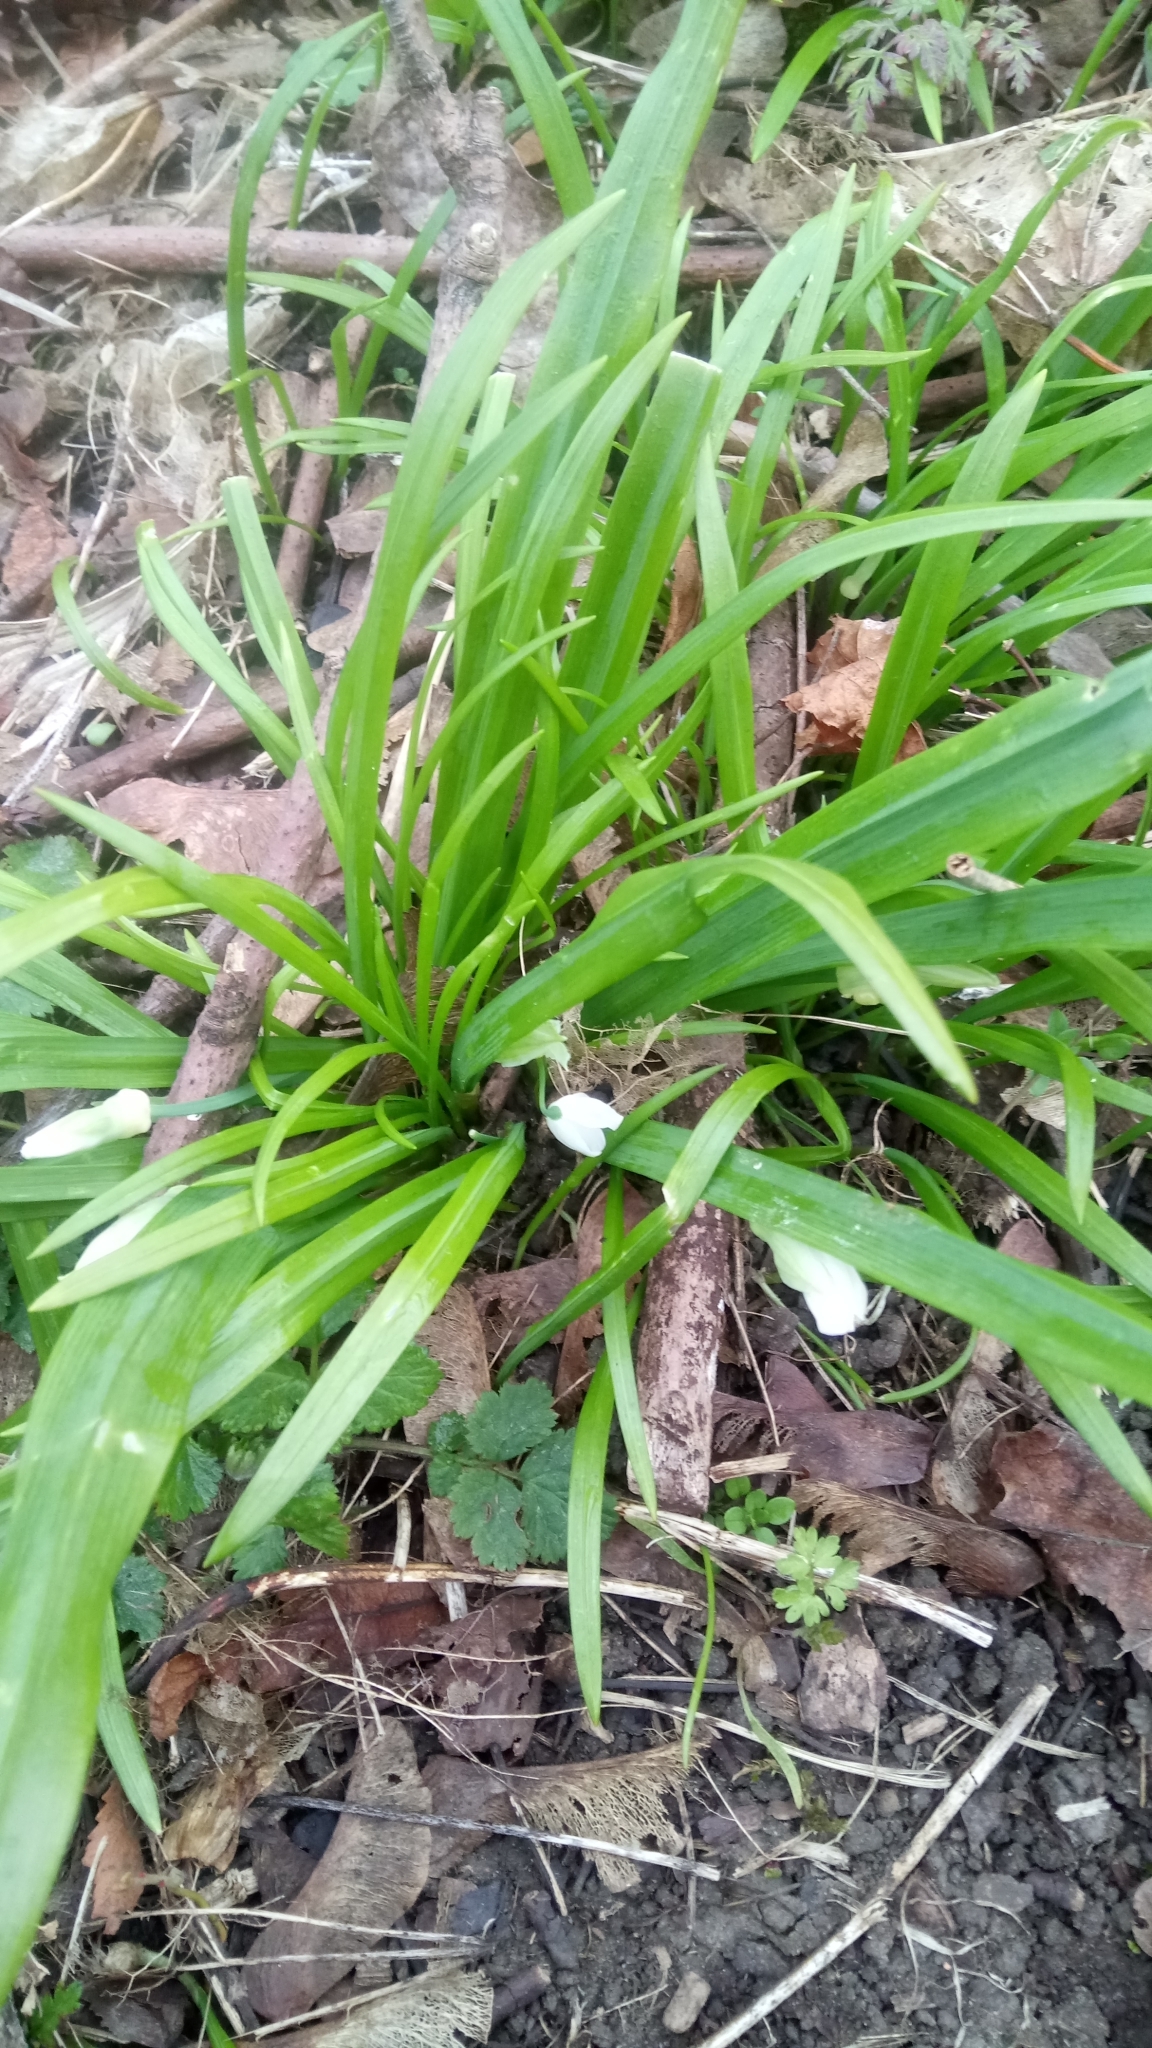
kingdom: Plantae
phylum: Tracheophyta
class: Liliopsida
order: Asparagales
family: Amaryllidaceae
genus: Allium
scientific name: Allium paradoxum
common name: Few-flowered garlic
